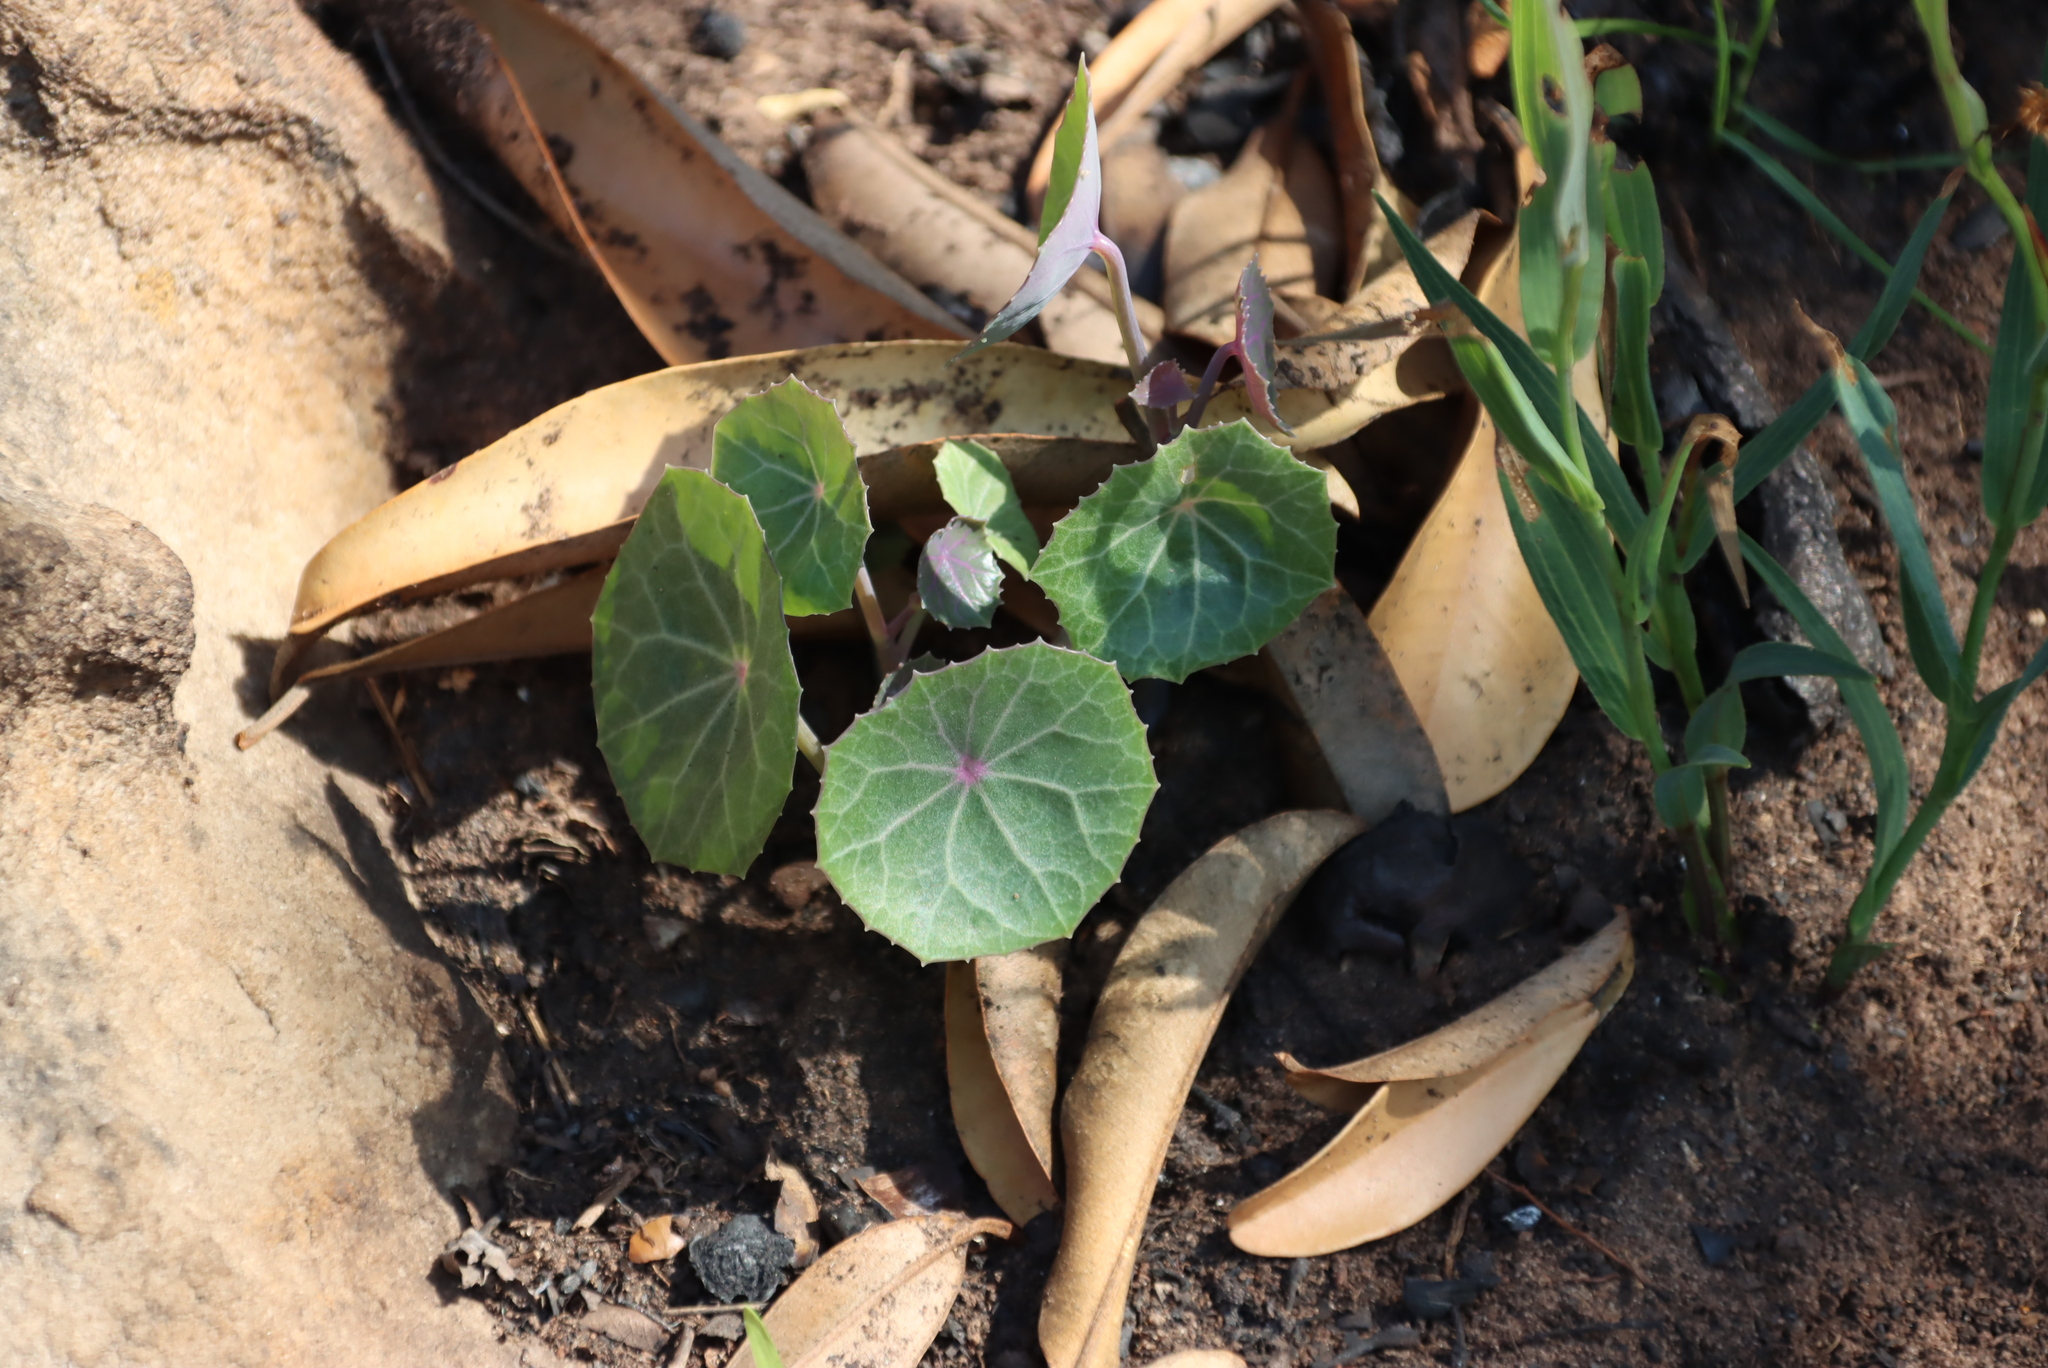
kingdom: Plantae
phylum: Tracheophyta
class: Magnoliopsida
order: Asterales
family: Asteraceae
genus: Senecio
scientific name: Senecio oxyriifolius
